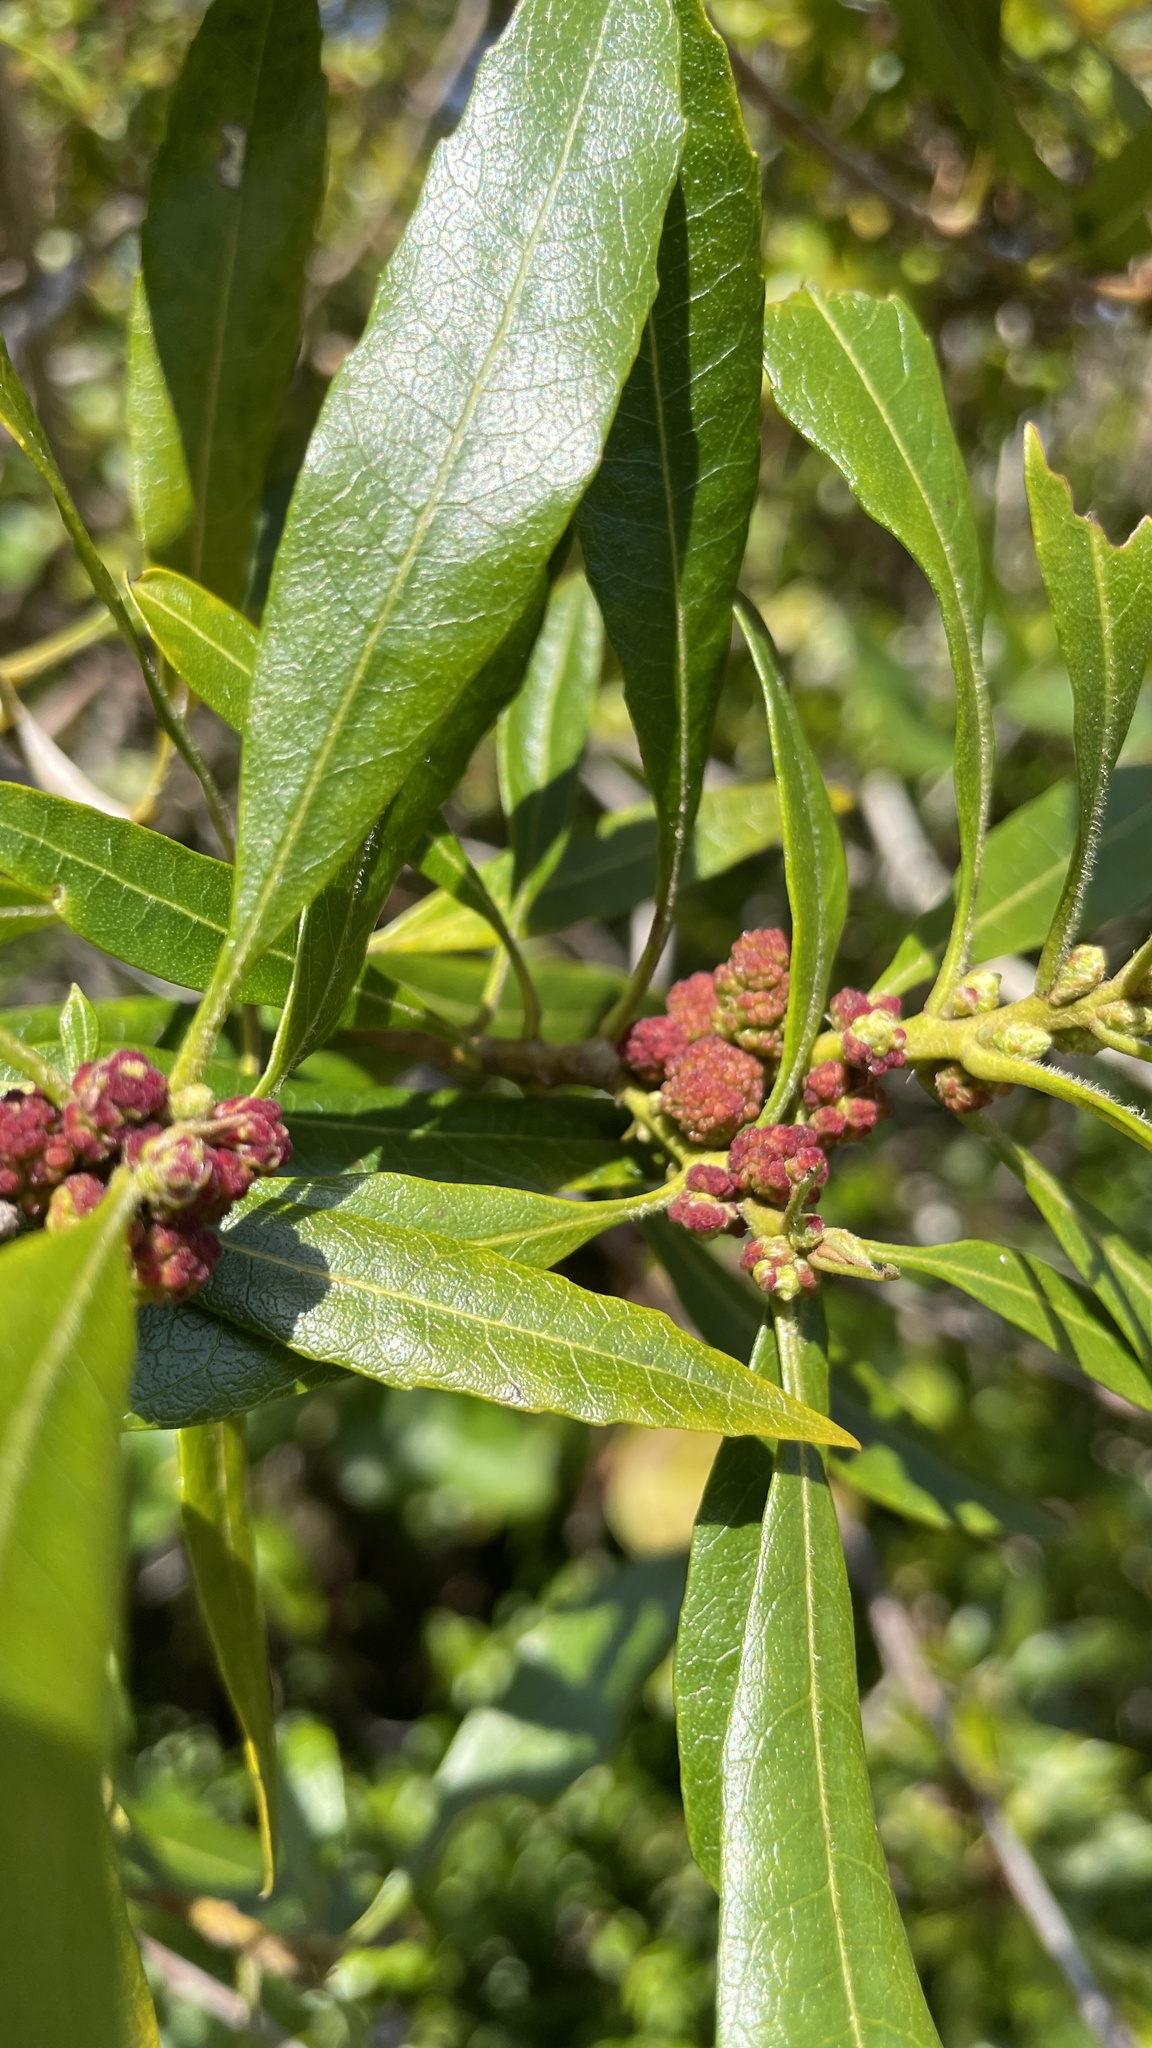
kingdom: Plantae
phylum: Tracheophyta
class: Magnoliopsida
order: Fagales
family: Myricaceae
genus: Morella
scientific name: Morella californica
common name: California wax-myrtle
